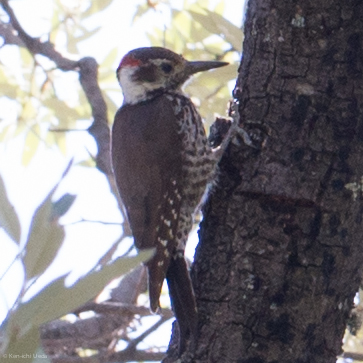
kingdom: Animalia
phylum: Chordata
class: Aves
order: Piciformes
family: Picidae
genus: Leuconotopicus
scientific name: Leuconotopicus arizonae
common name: Arizona woodpecker
